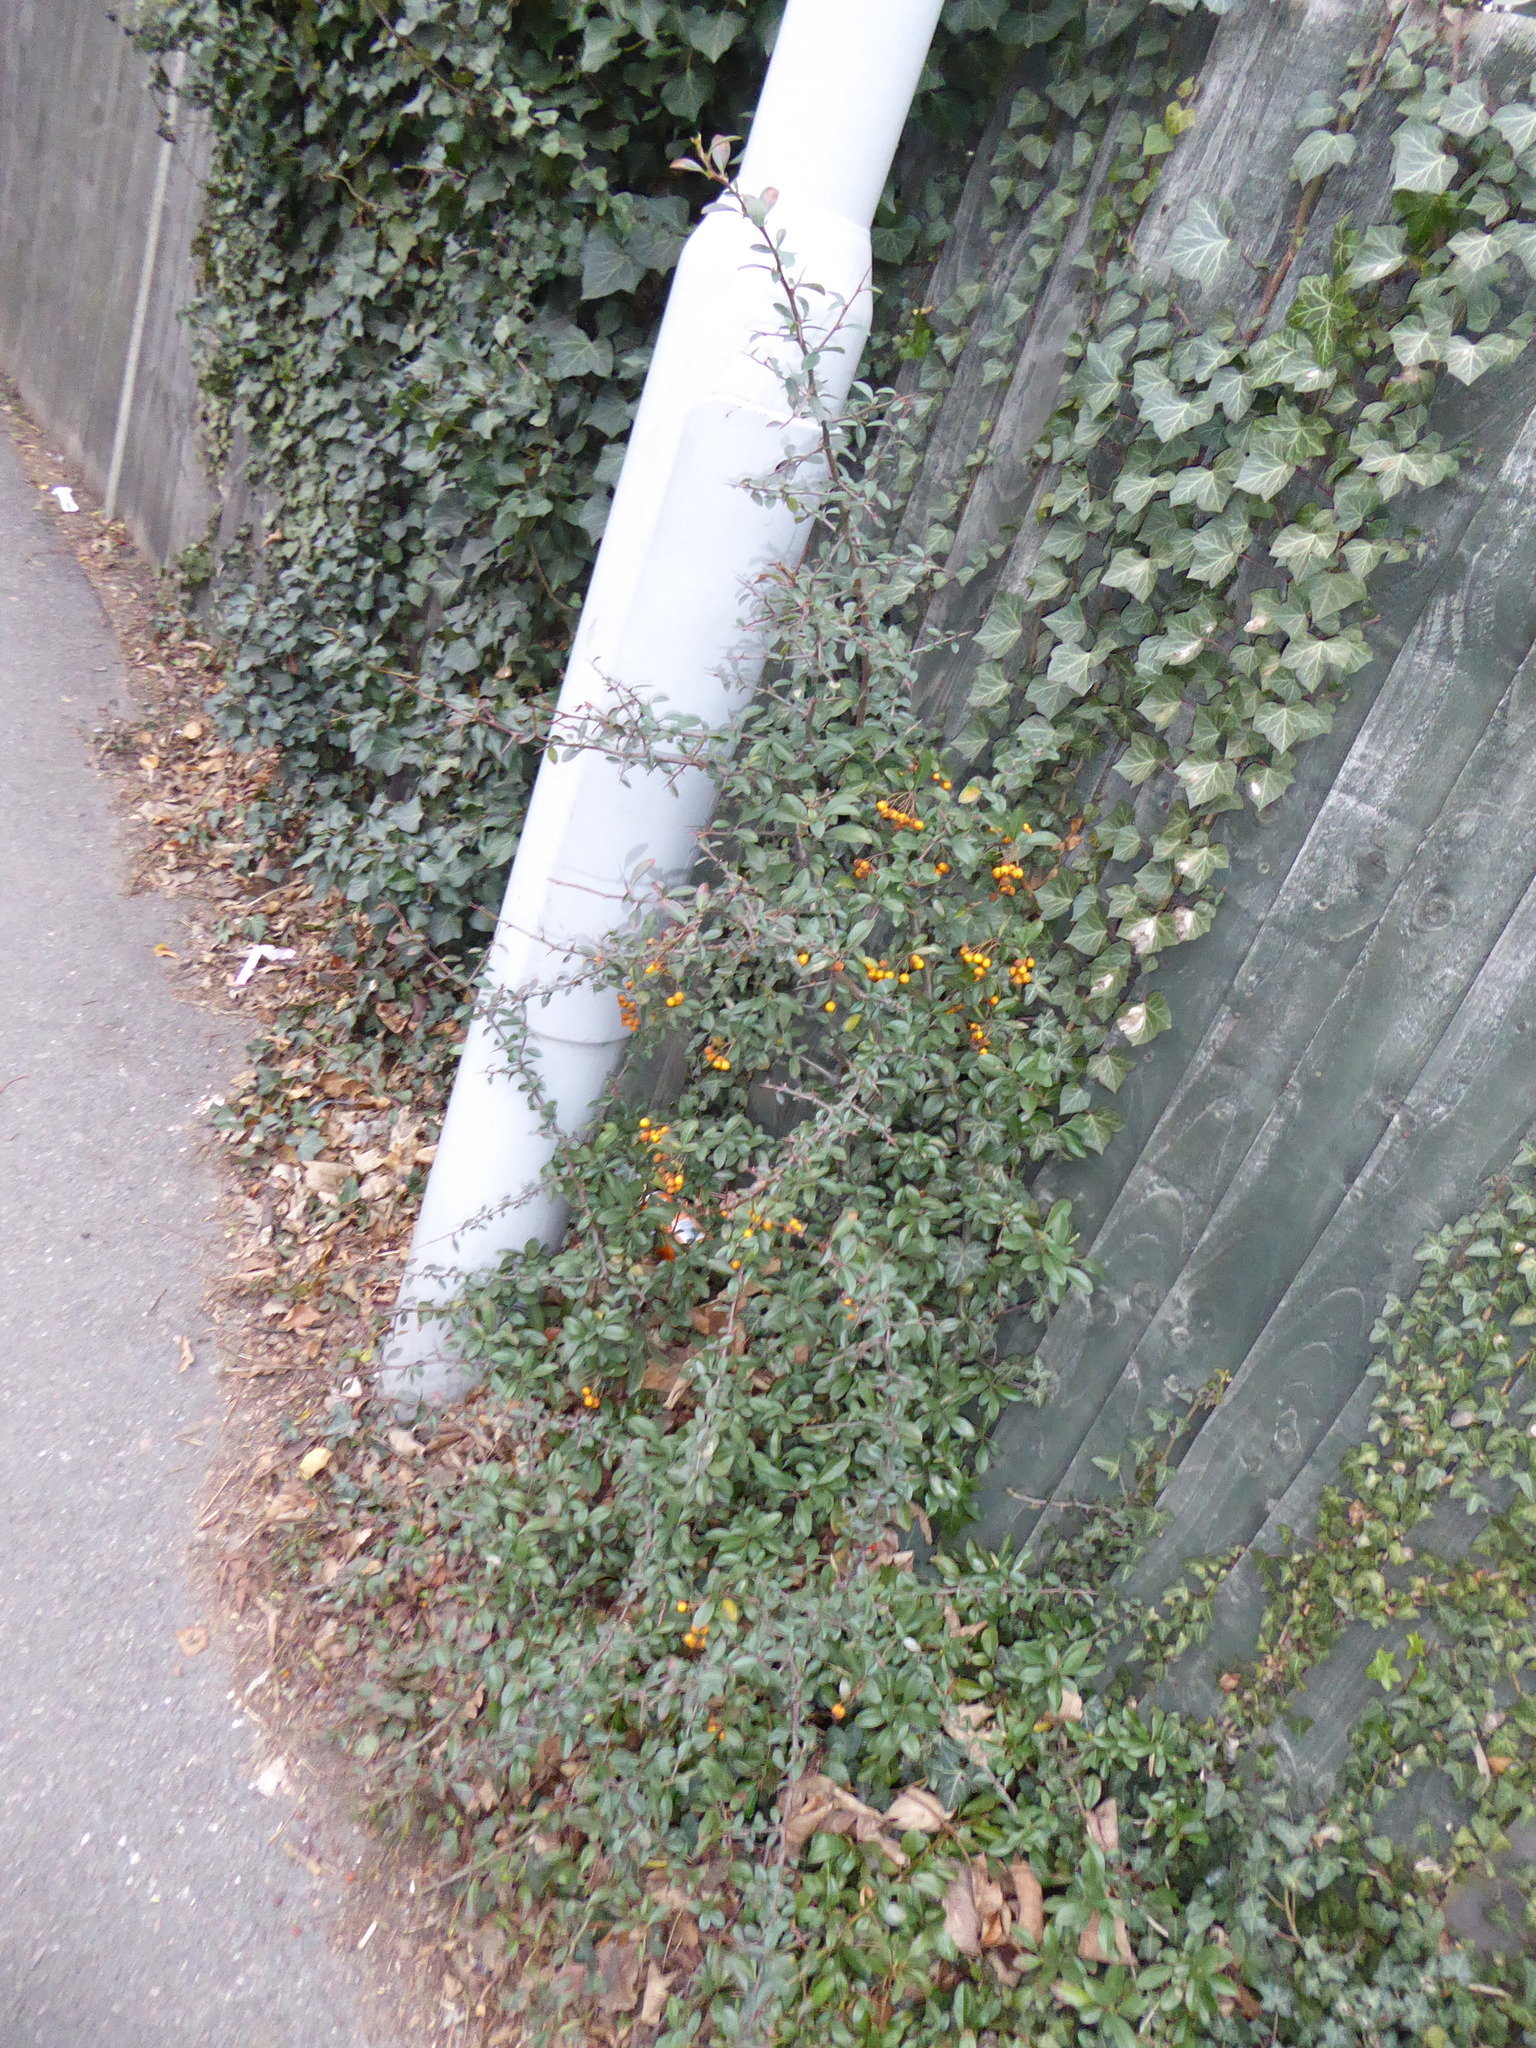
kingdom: Plantae
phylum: Tracheophyta
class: Magnoliopsida
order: Rosales
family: Rosaceae
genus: Pyracantha
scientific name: Pyracantha coccinea
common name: Firethorn
